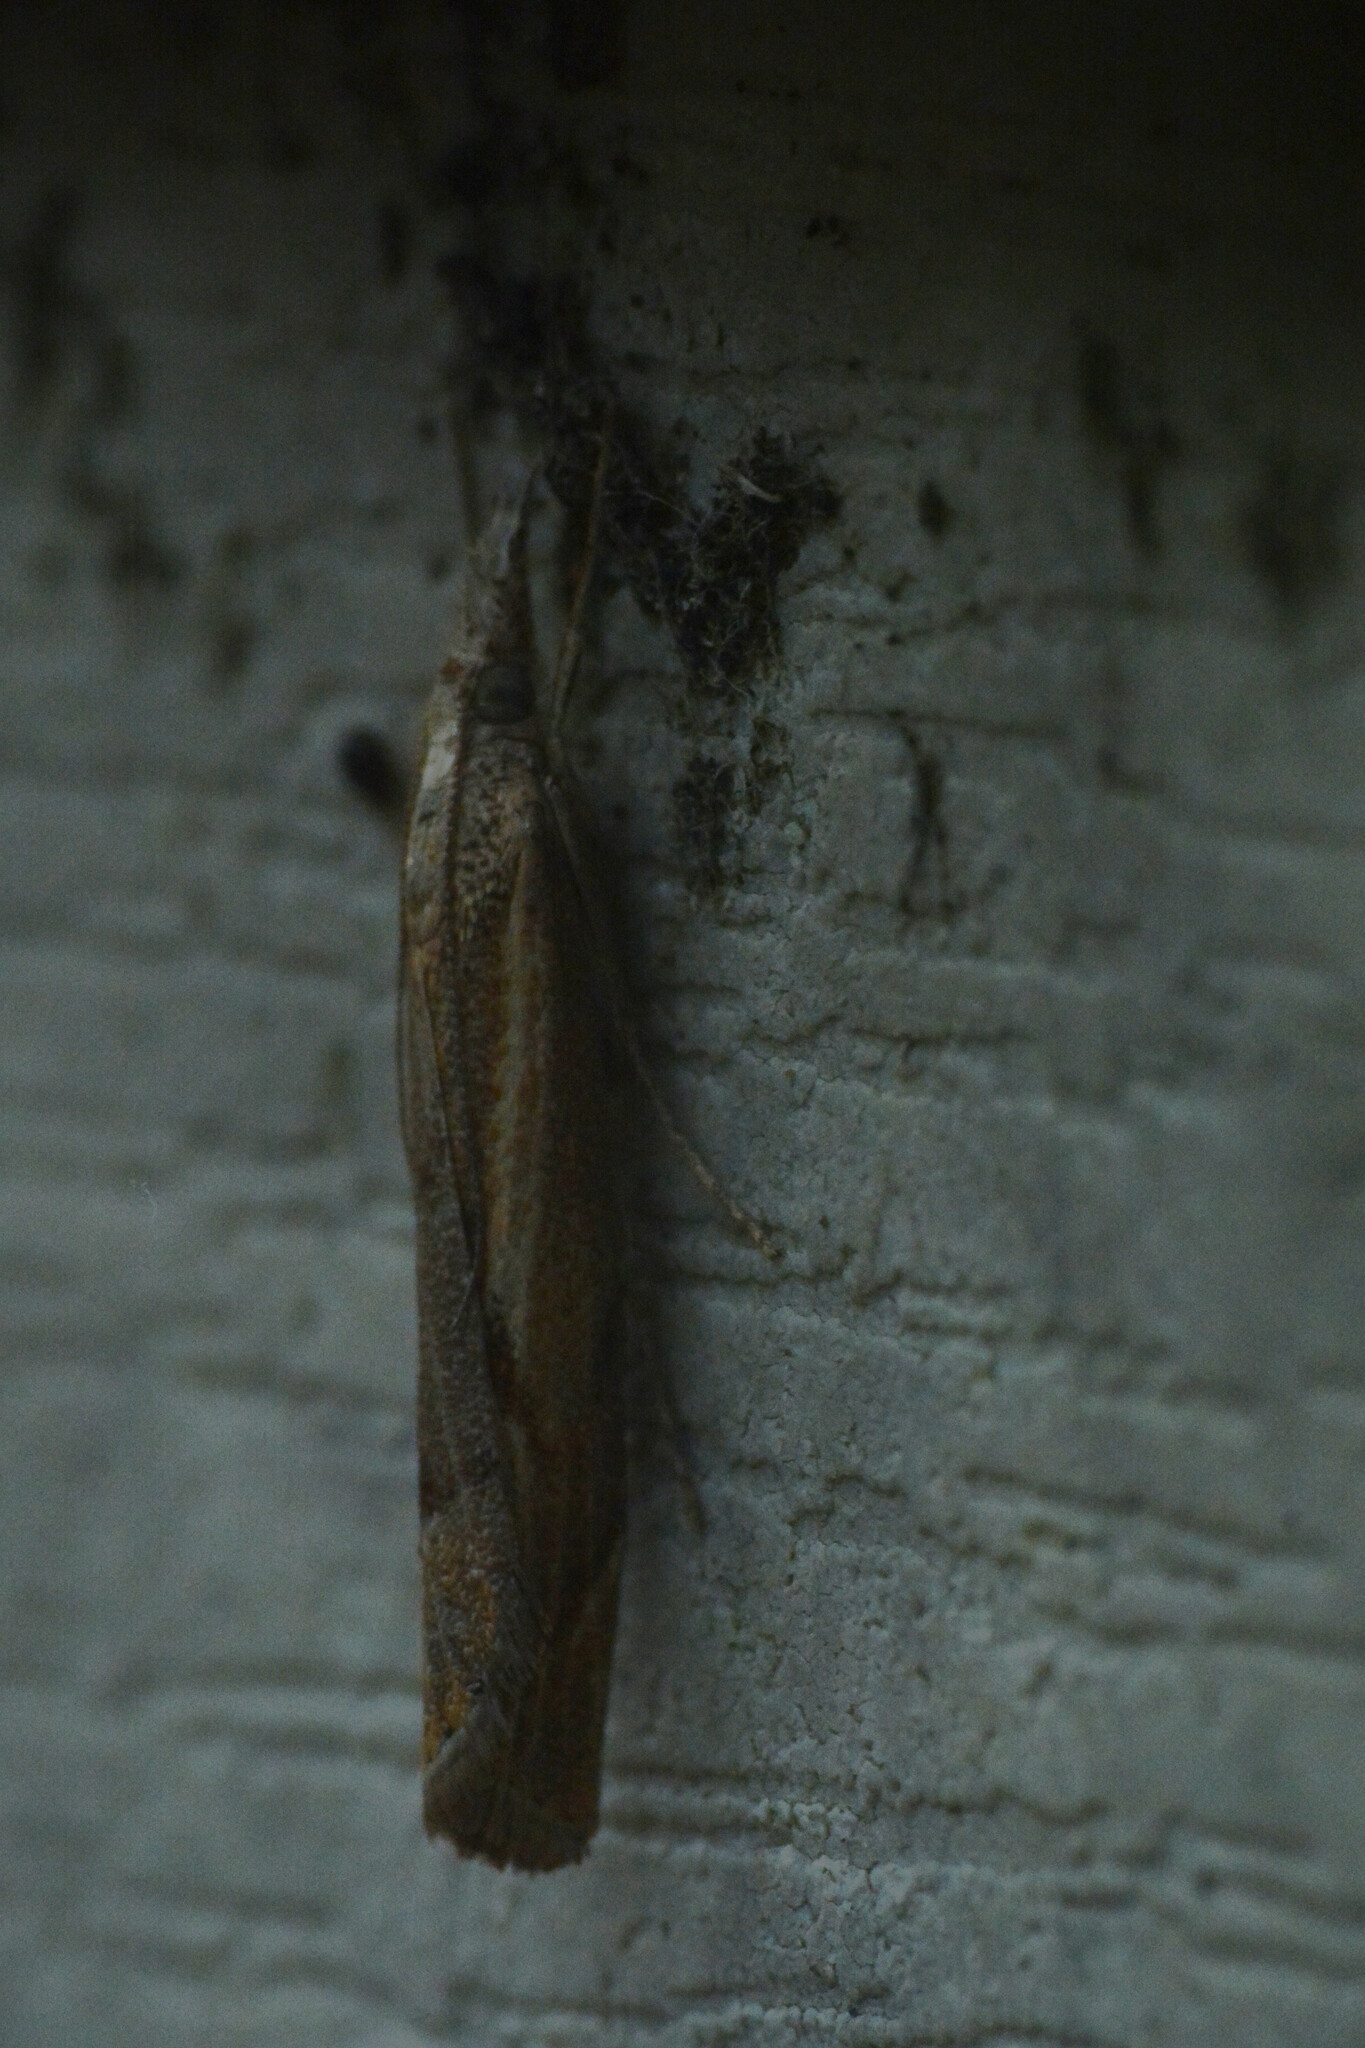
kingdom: Animalia
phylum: Arthropoda
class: Insecta
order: Lepidoptera
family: Crambidae
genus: Agriphila
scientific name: Agriphila geniculea
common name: Elbow-stripe grass-veneer
